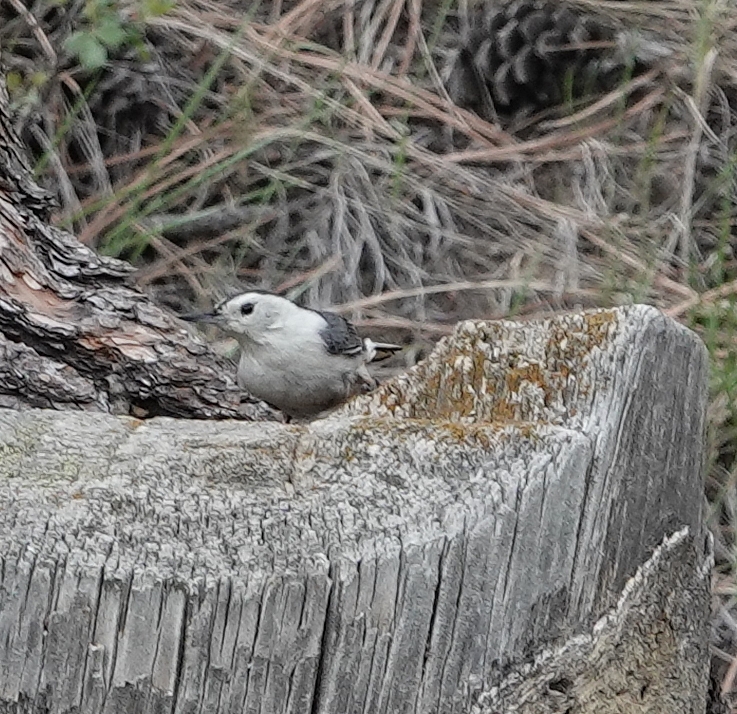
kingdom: Animalia
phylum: Chordata
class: Aves
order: Passeriformes
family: Sittidae
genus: Sitta
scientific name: Sitta carolinensis
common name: White-breasted nuthatch
